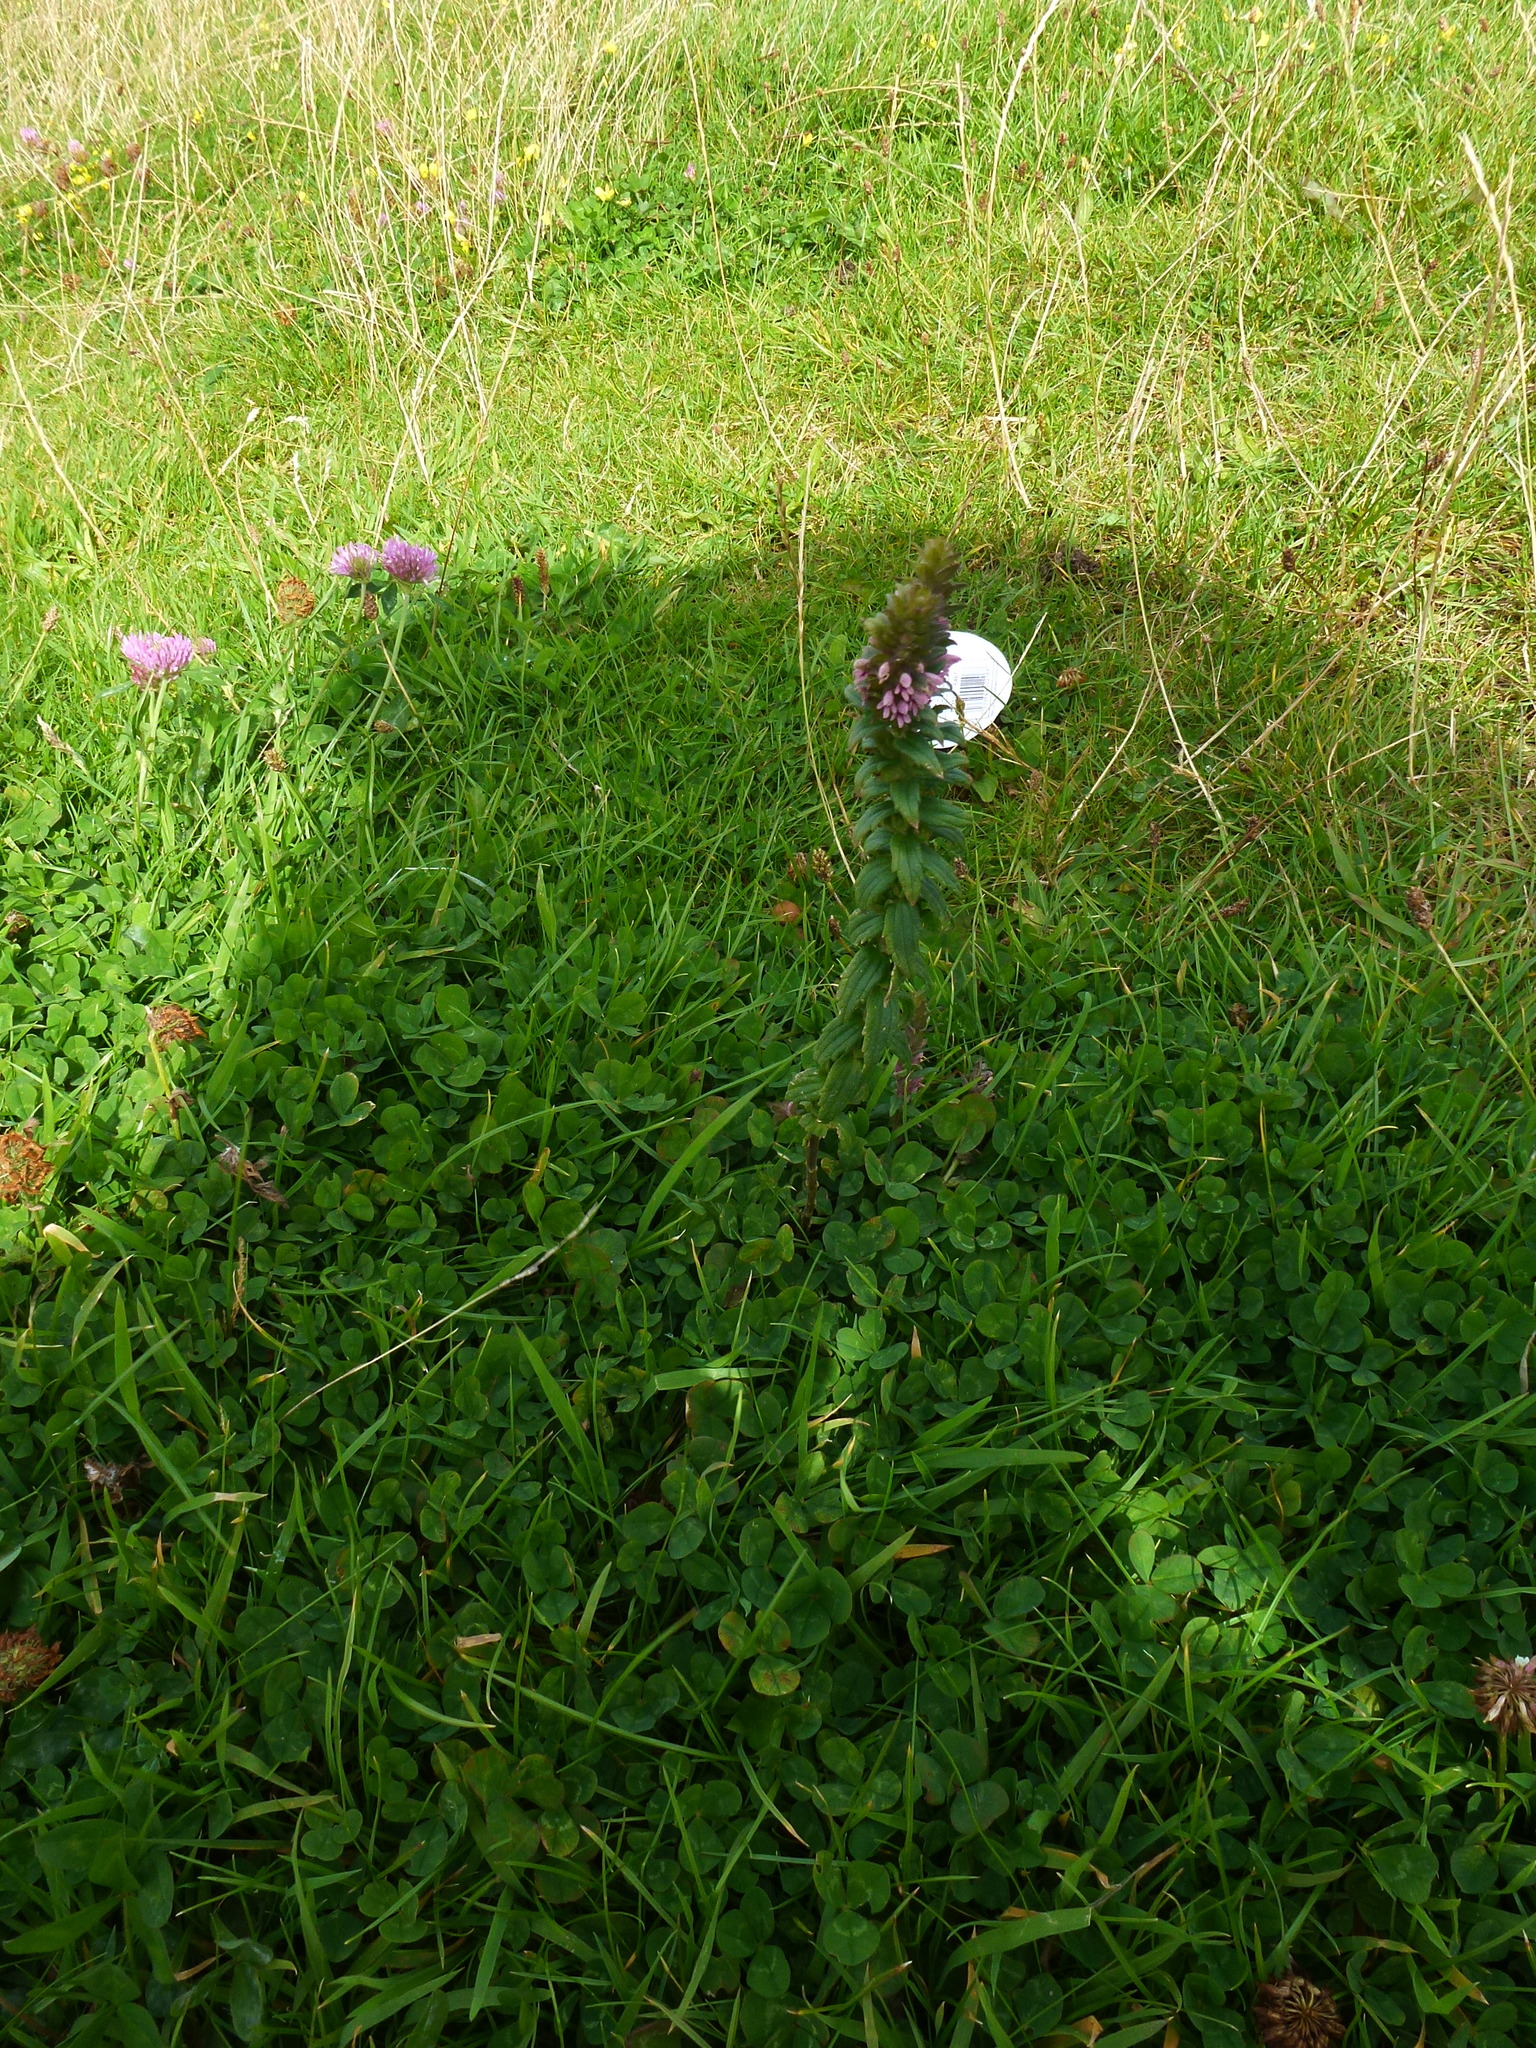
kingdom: Plantae
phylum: Tracheophyta
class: Magnoliopsida
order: Lamiales
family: Orobanchaceae
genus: Odontites
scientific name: Odontites vulgaris
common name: Broomrape
